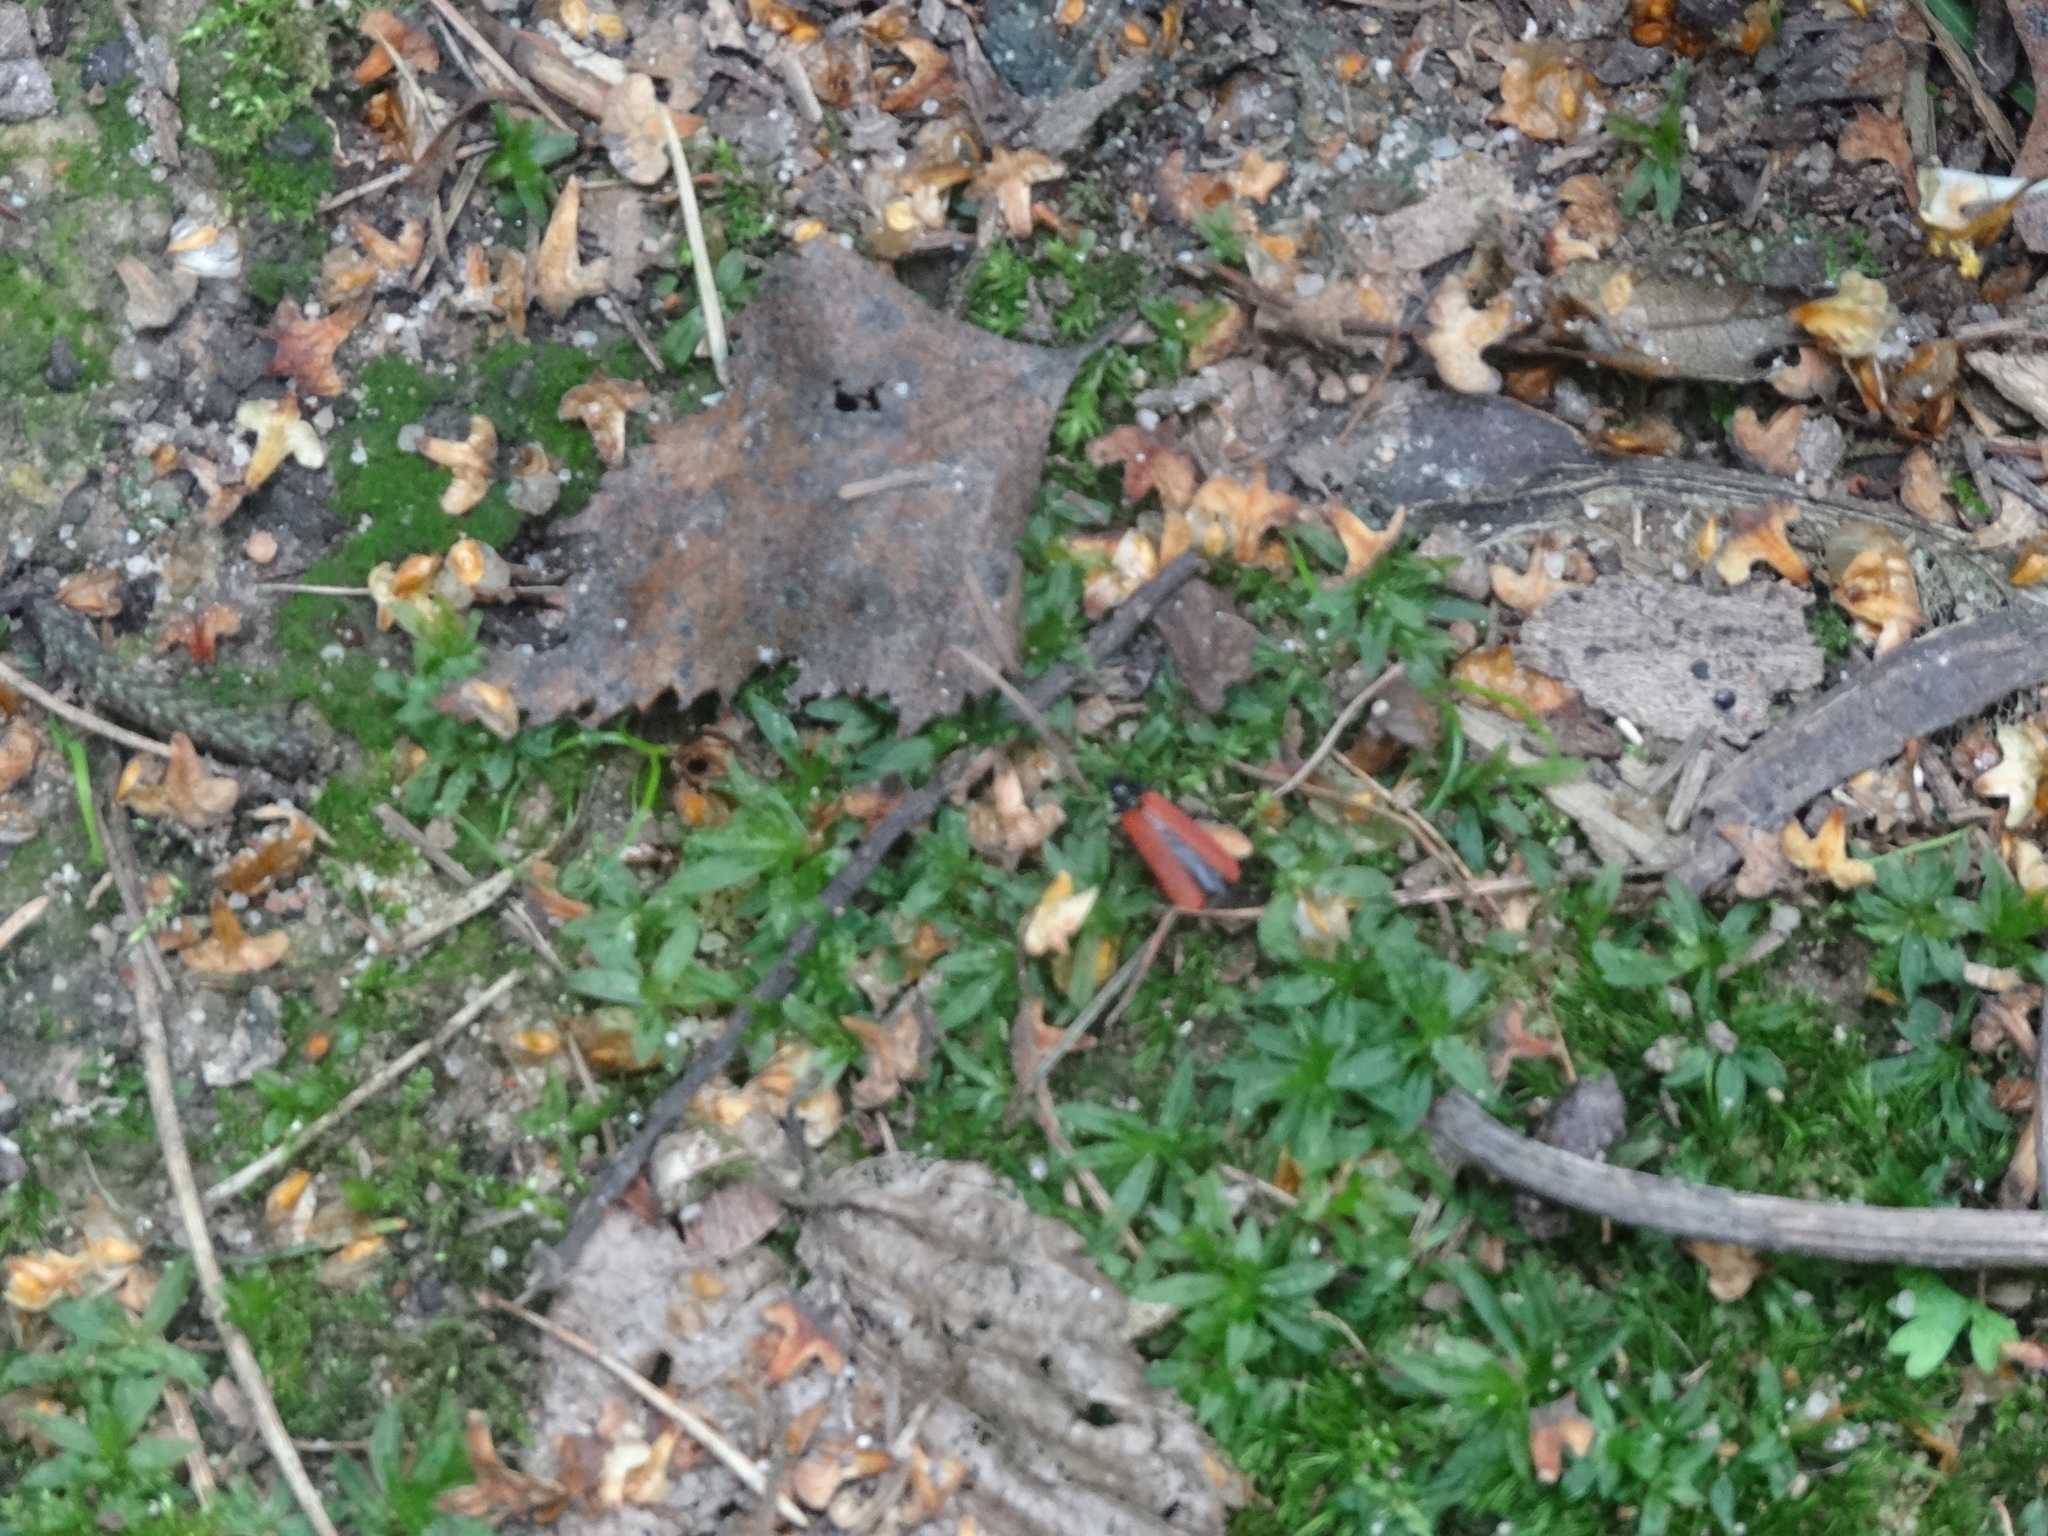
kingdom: Animalia
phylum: Arthropoda
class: Insecta
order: Coleoptera
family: Lycidae
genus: Platycis
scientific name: Platycis minutus
